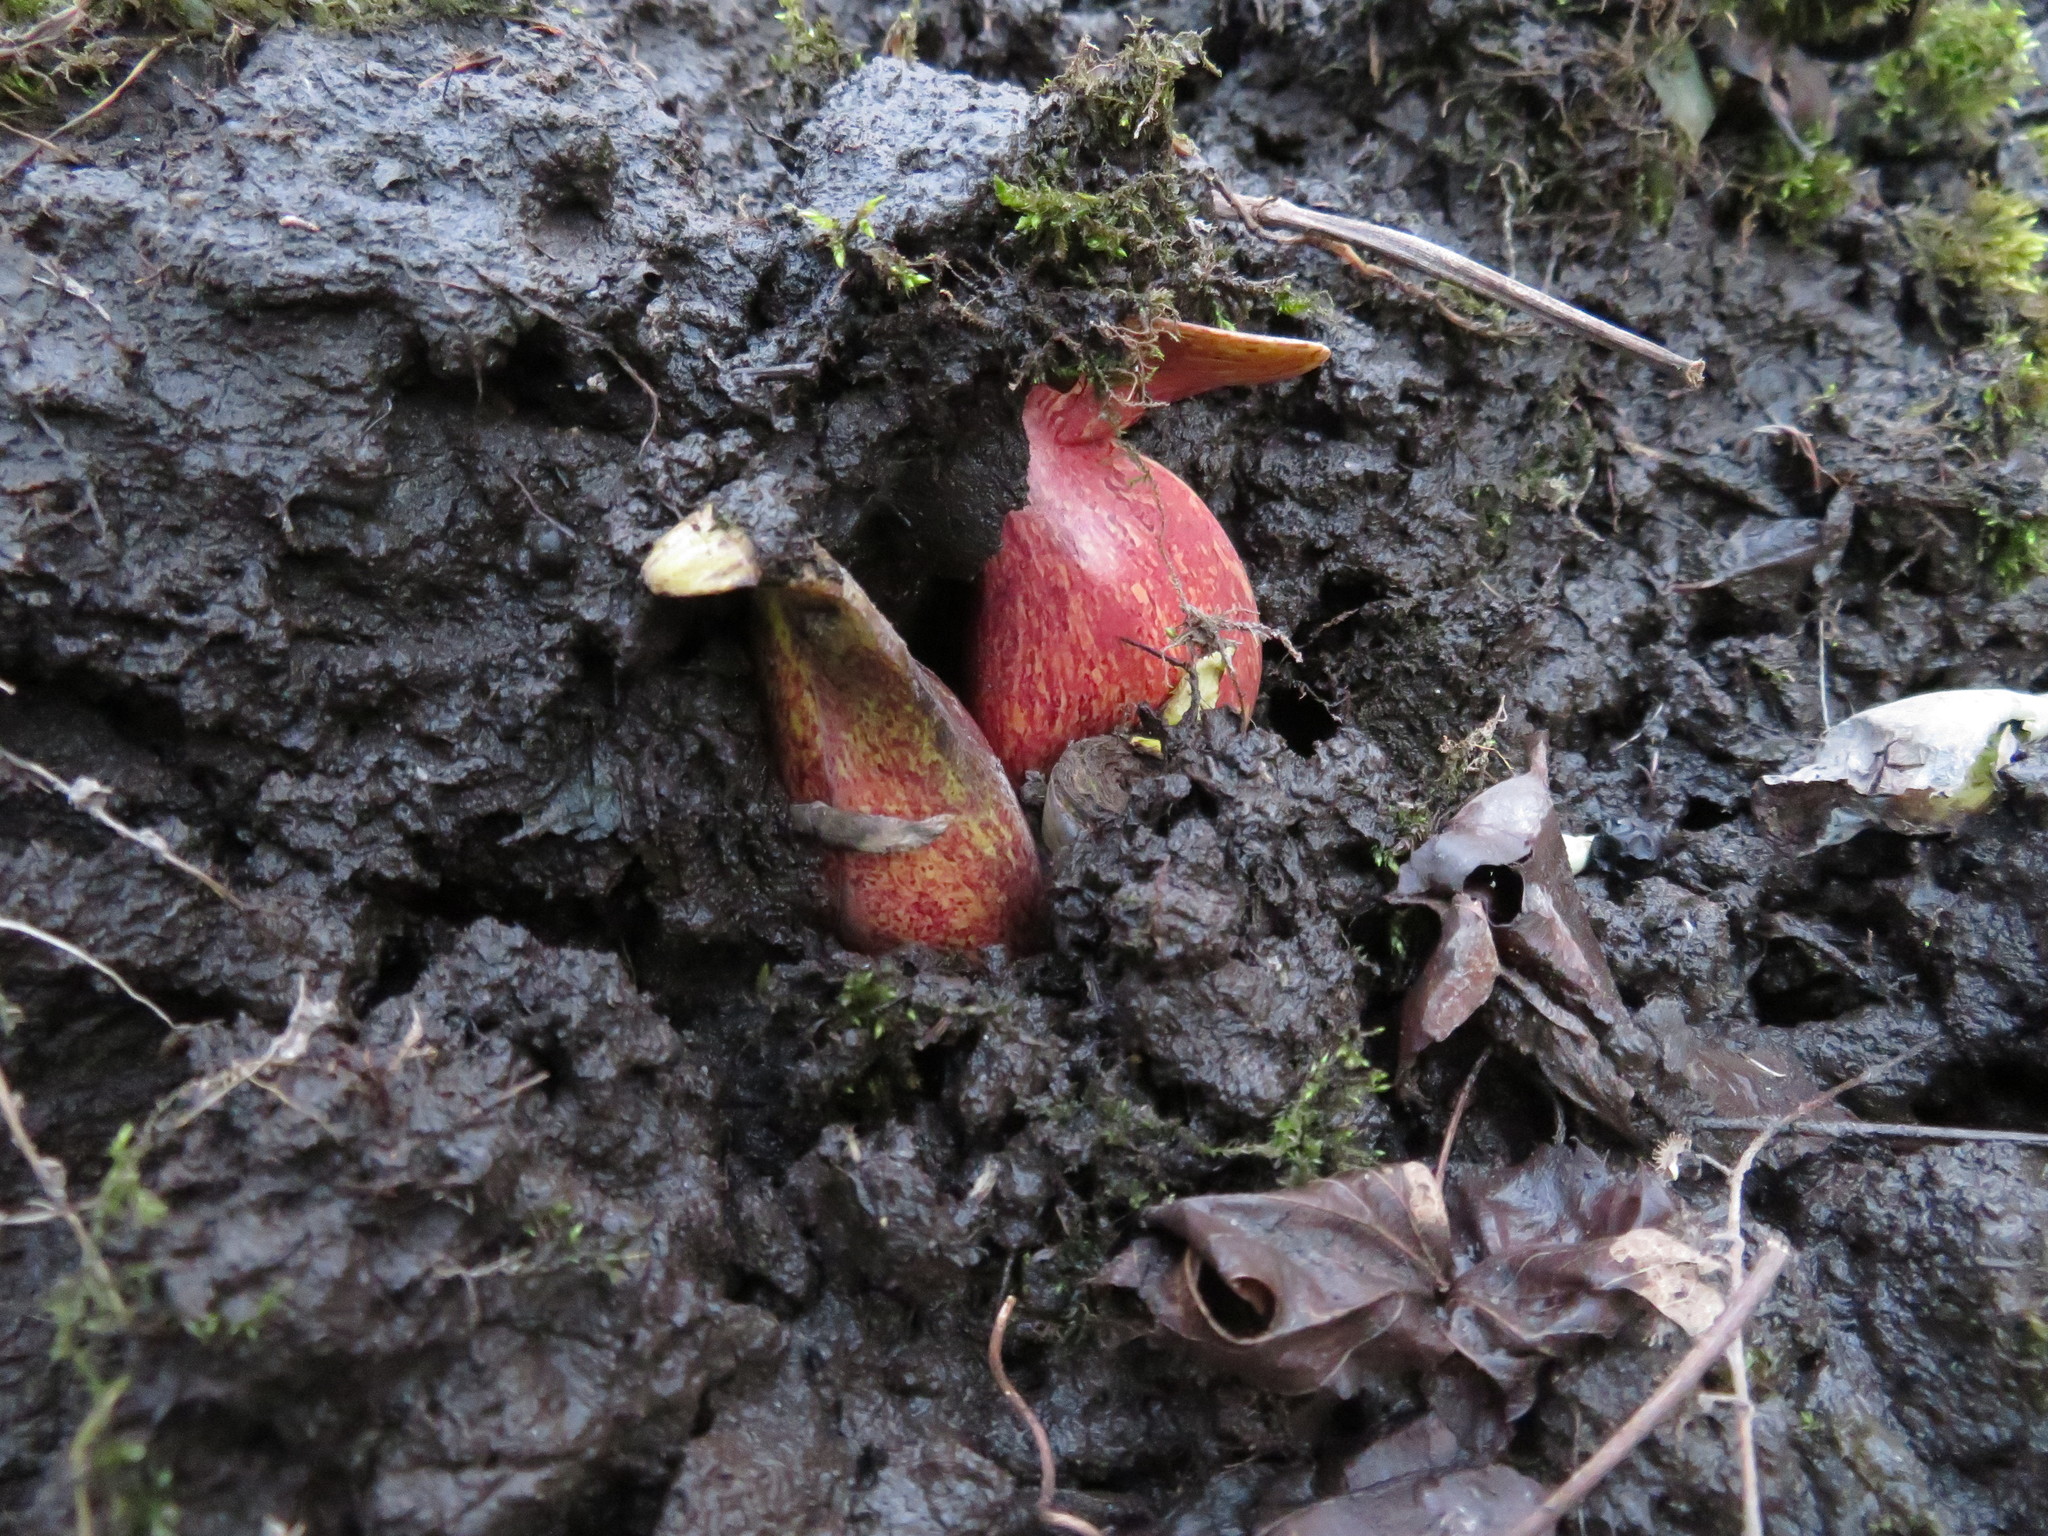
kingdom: Plantae
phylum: Tracheophyta
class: Liliopsida
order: Alismatales
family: Araceae
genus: Symplocarpus
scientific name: Symplocarpus foetidus
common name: Eastern skunk cabbage
